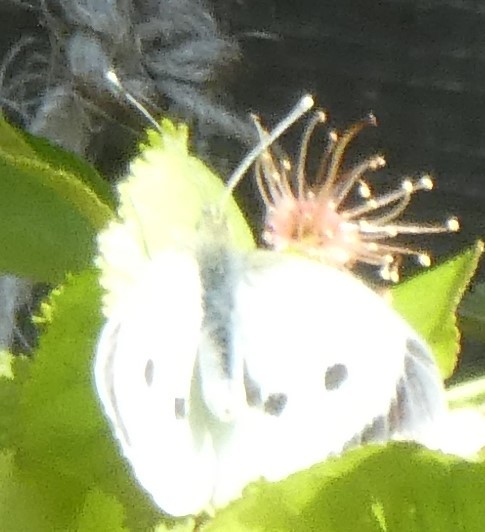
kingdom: Animalia
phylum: Arthropoda
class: Insecta
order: Lepidoptera
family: Pieridae
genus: Pieris
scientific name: Pieris brassicae
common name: Large white
